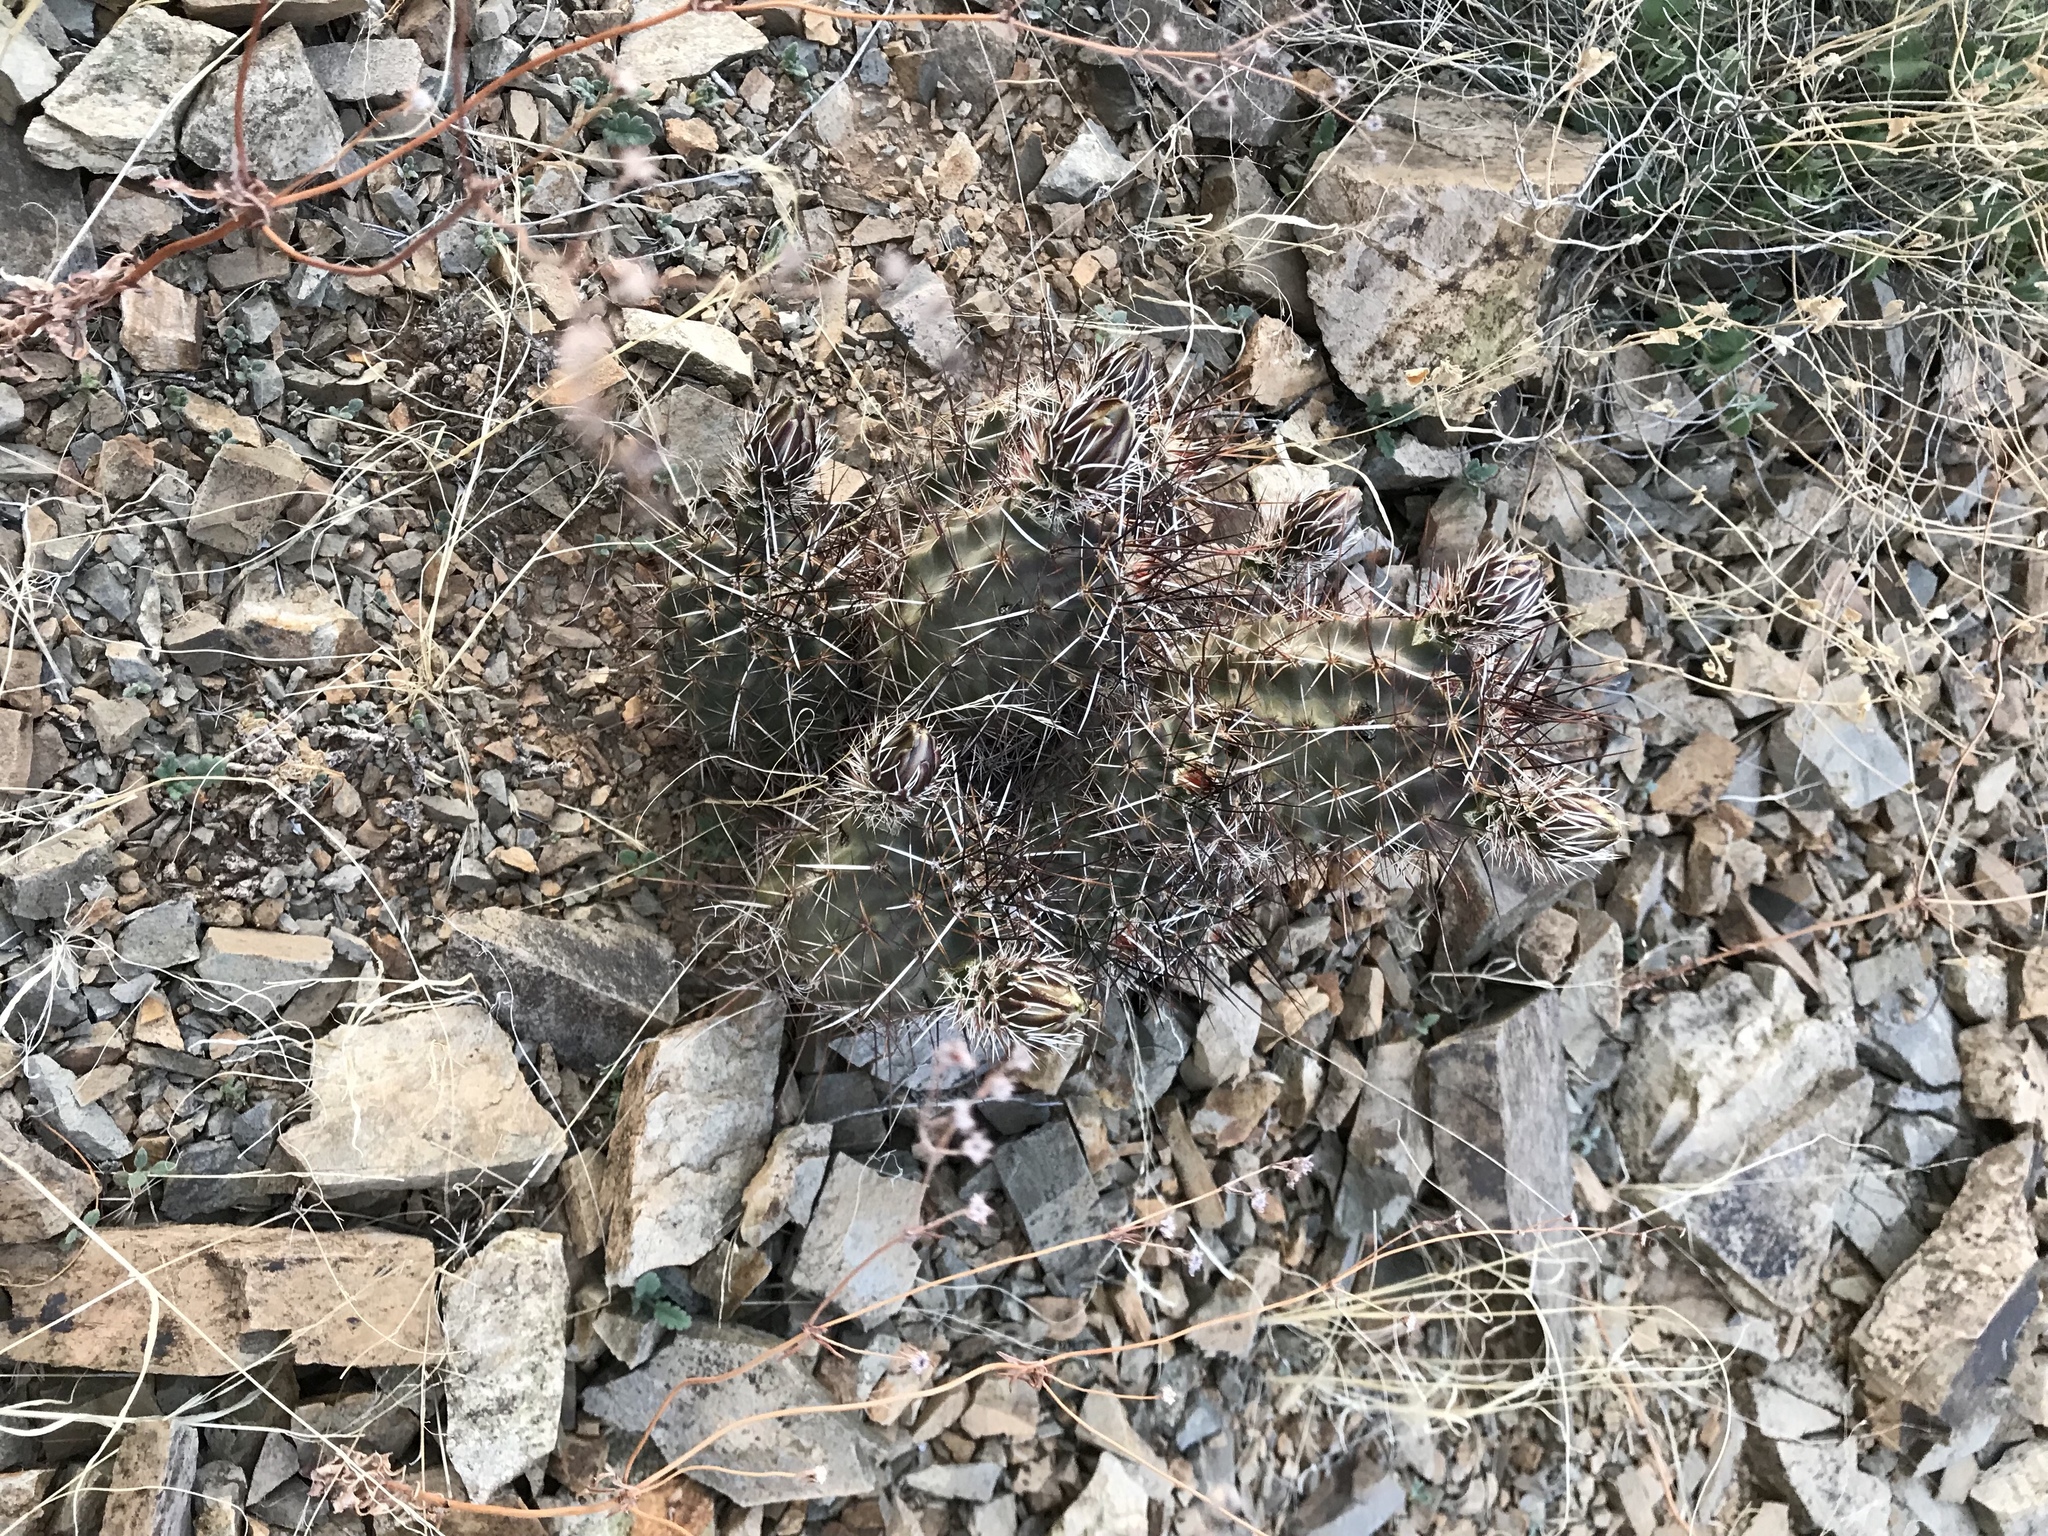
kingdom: Plantae
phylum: Tracheophyta
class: Magnoliopsida
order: Caryophyllales
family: Cactaceae
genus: Echinocereus
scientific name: Echinocereus fendleri
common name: Fendler's hedgehog cactus
